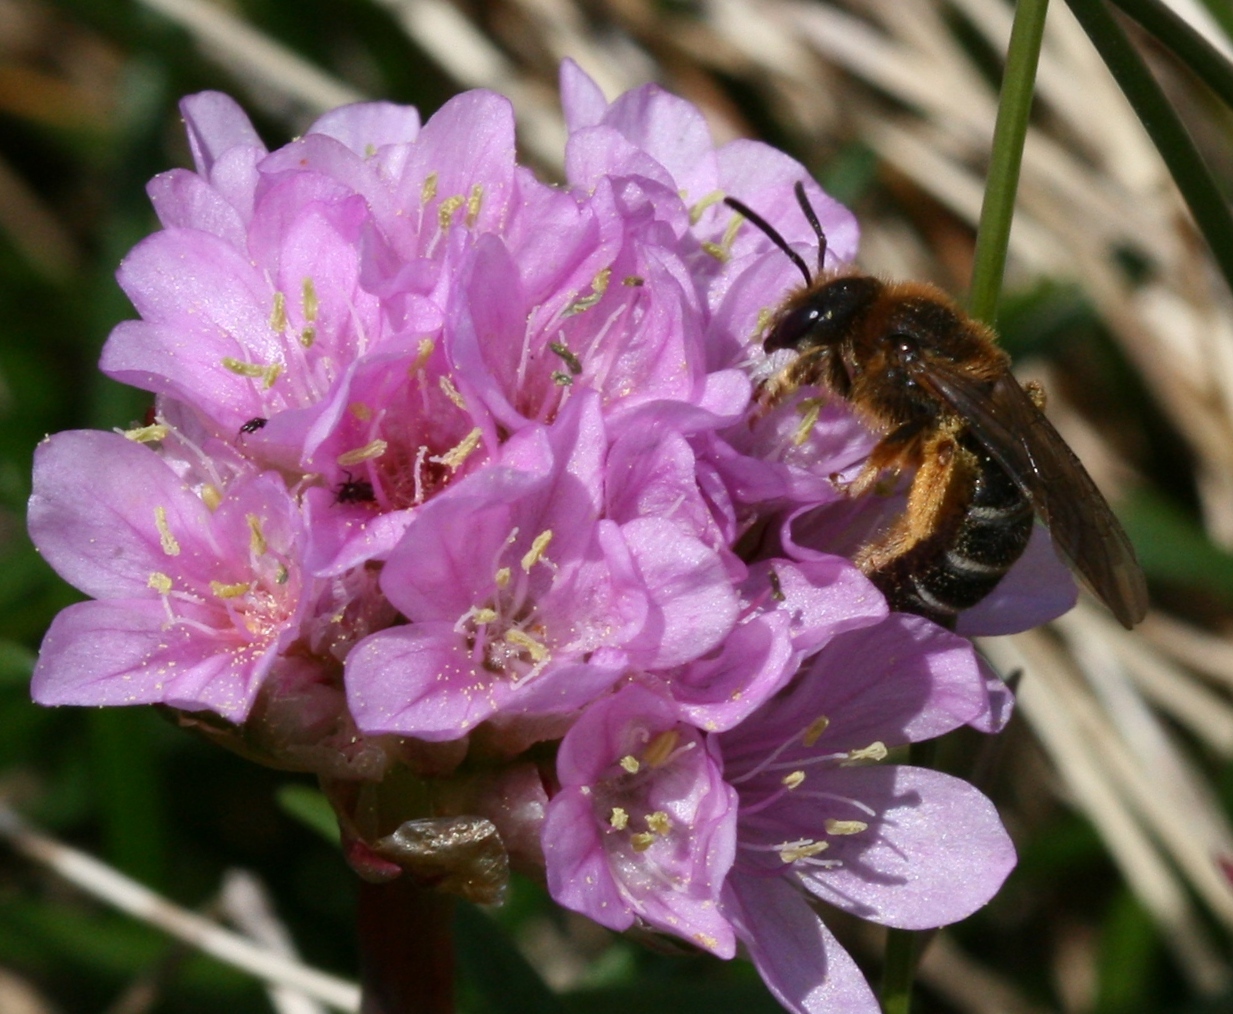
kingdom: Animalia
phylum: Arthropoda
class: Insecta
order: Hymenoptera
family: Halictidae
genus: Halictus
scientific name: Halictus rubicundus
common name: Orange-legged furrow bee
